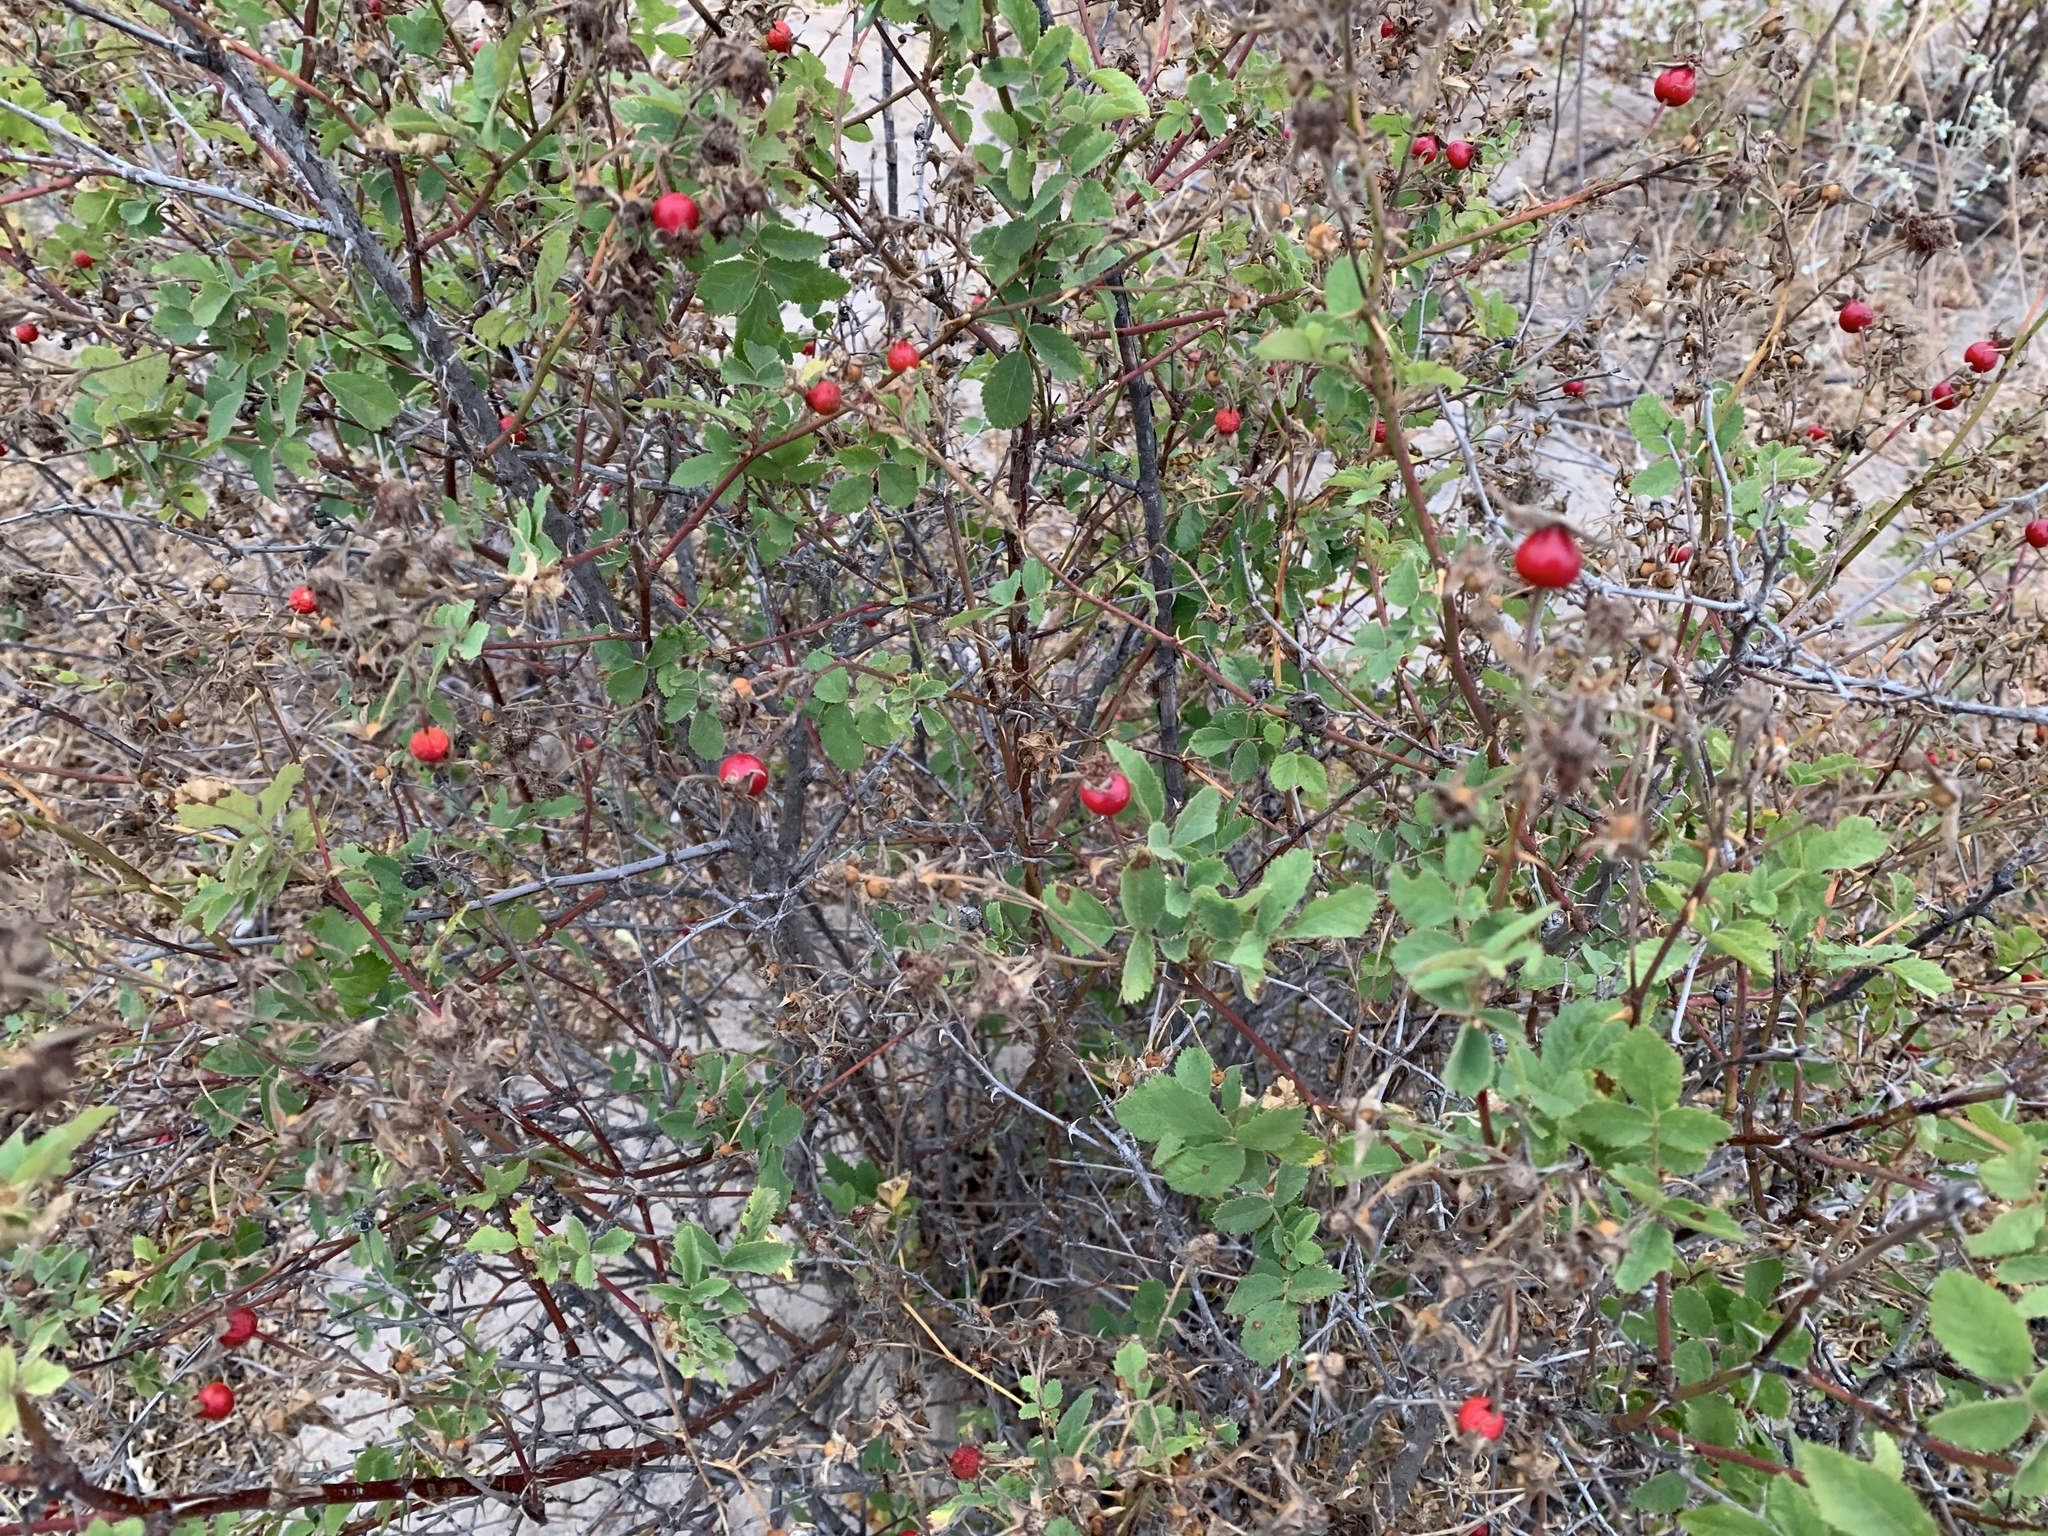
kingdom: Plantae
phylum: Tracheophyta
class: Magnoliopsida
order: Rosales
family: Rosaceae
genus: Rosa
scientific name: Rosa californica
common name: California rose
